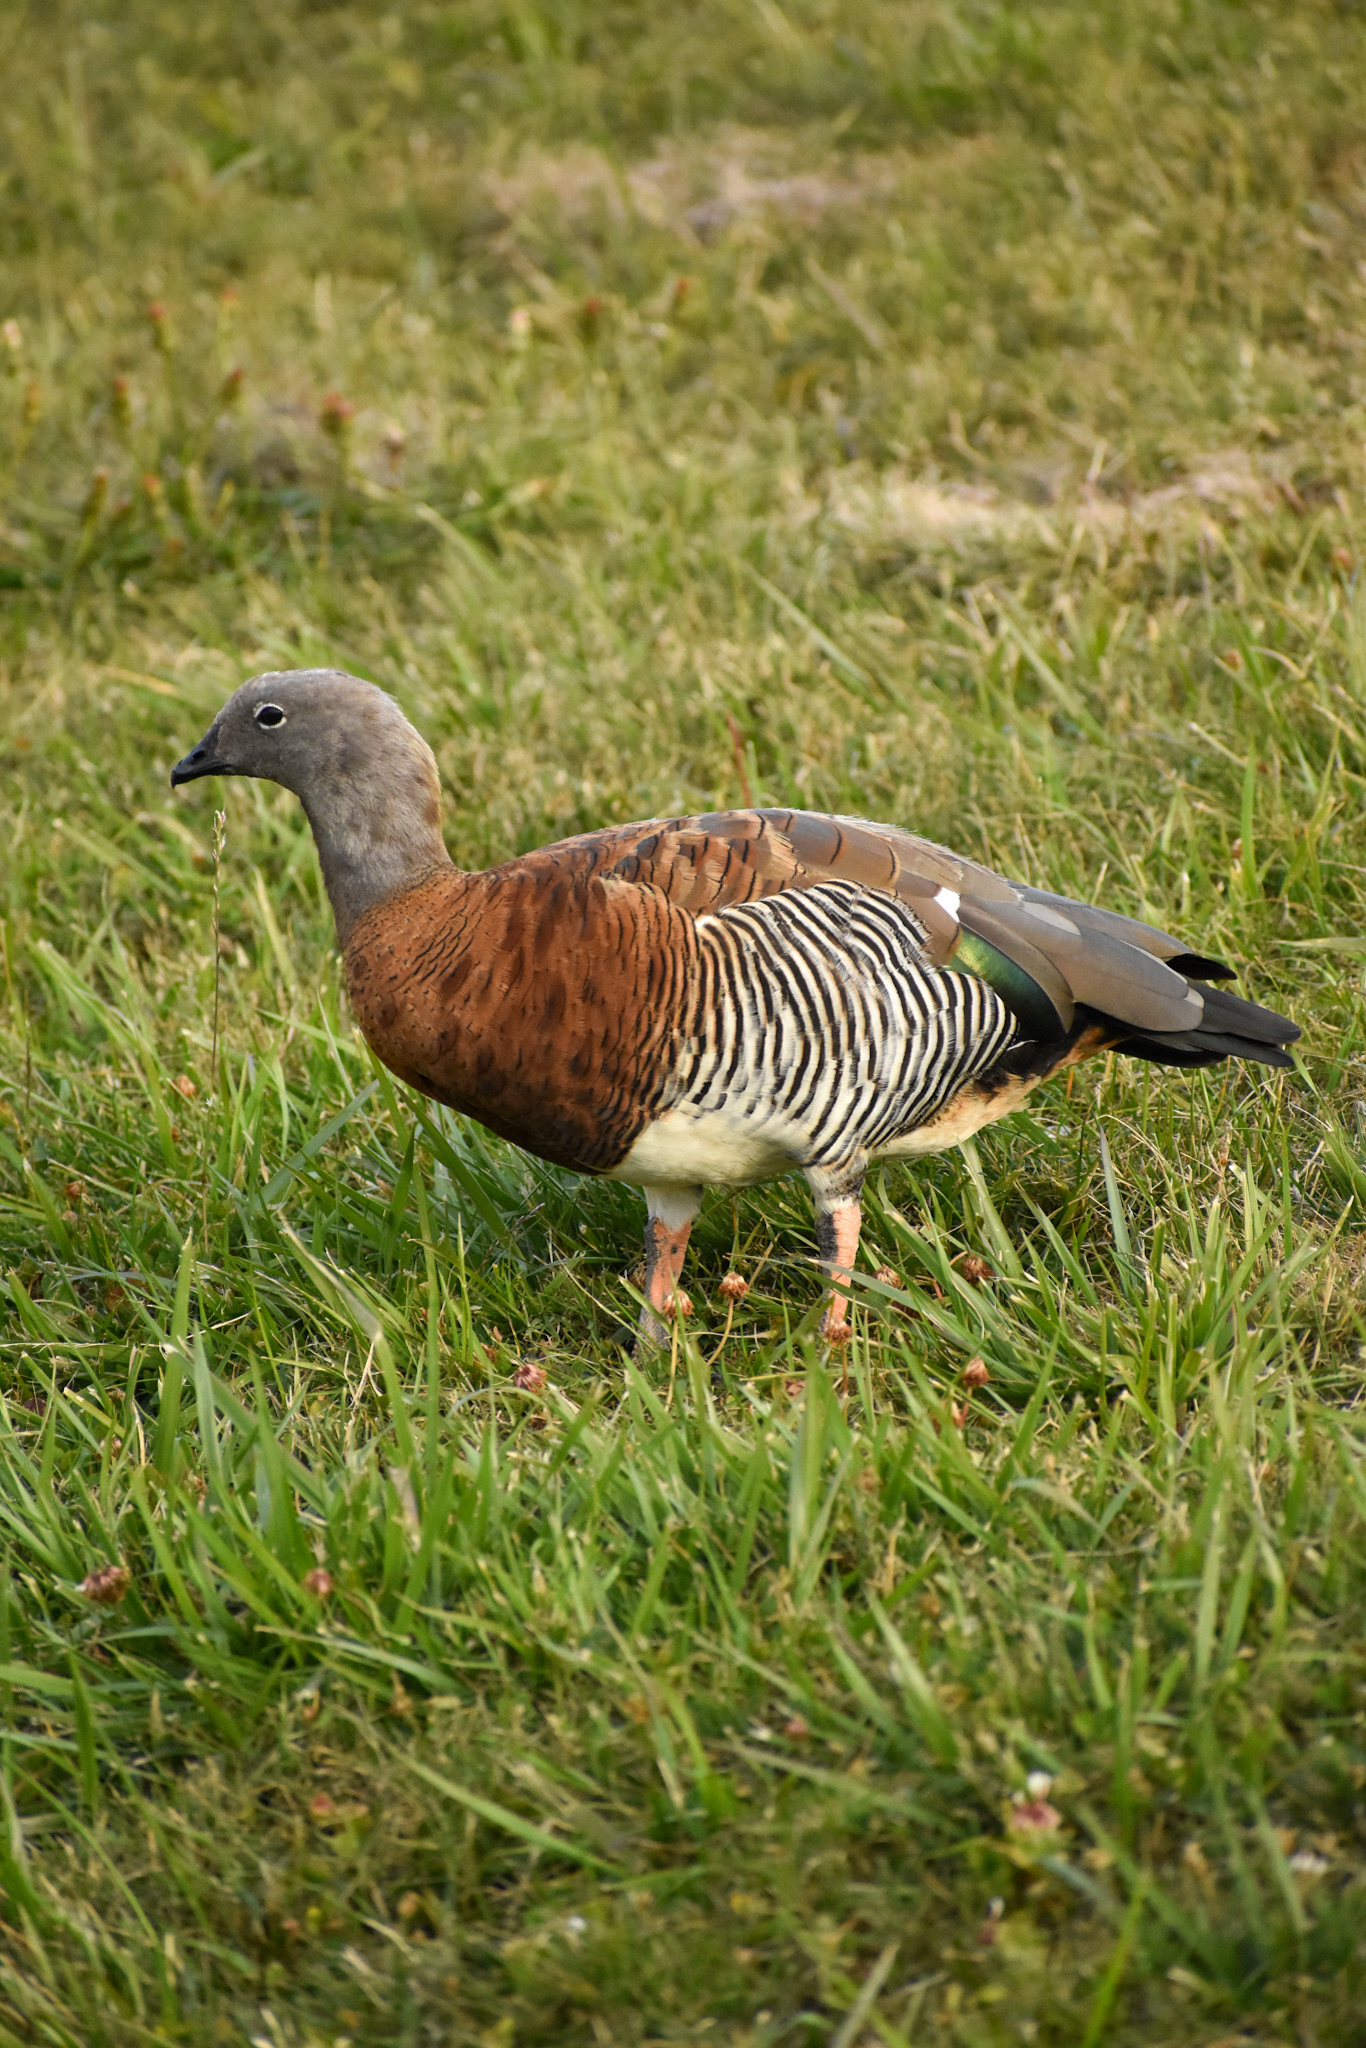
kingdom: Animalia
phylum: Chordata
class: Aves
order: Anseriformes
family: Anatidae
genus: Chloephaga
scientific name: Chloephaga poliocephala
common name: Ashy-headed goose
